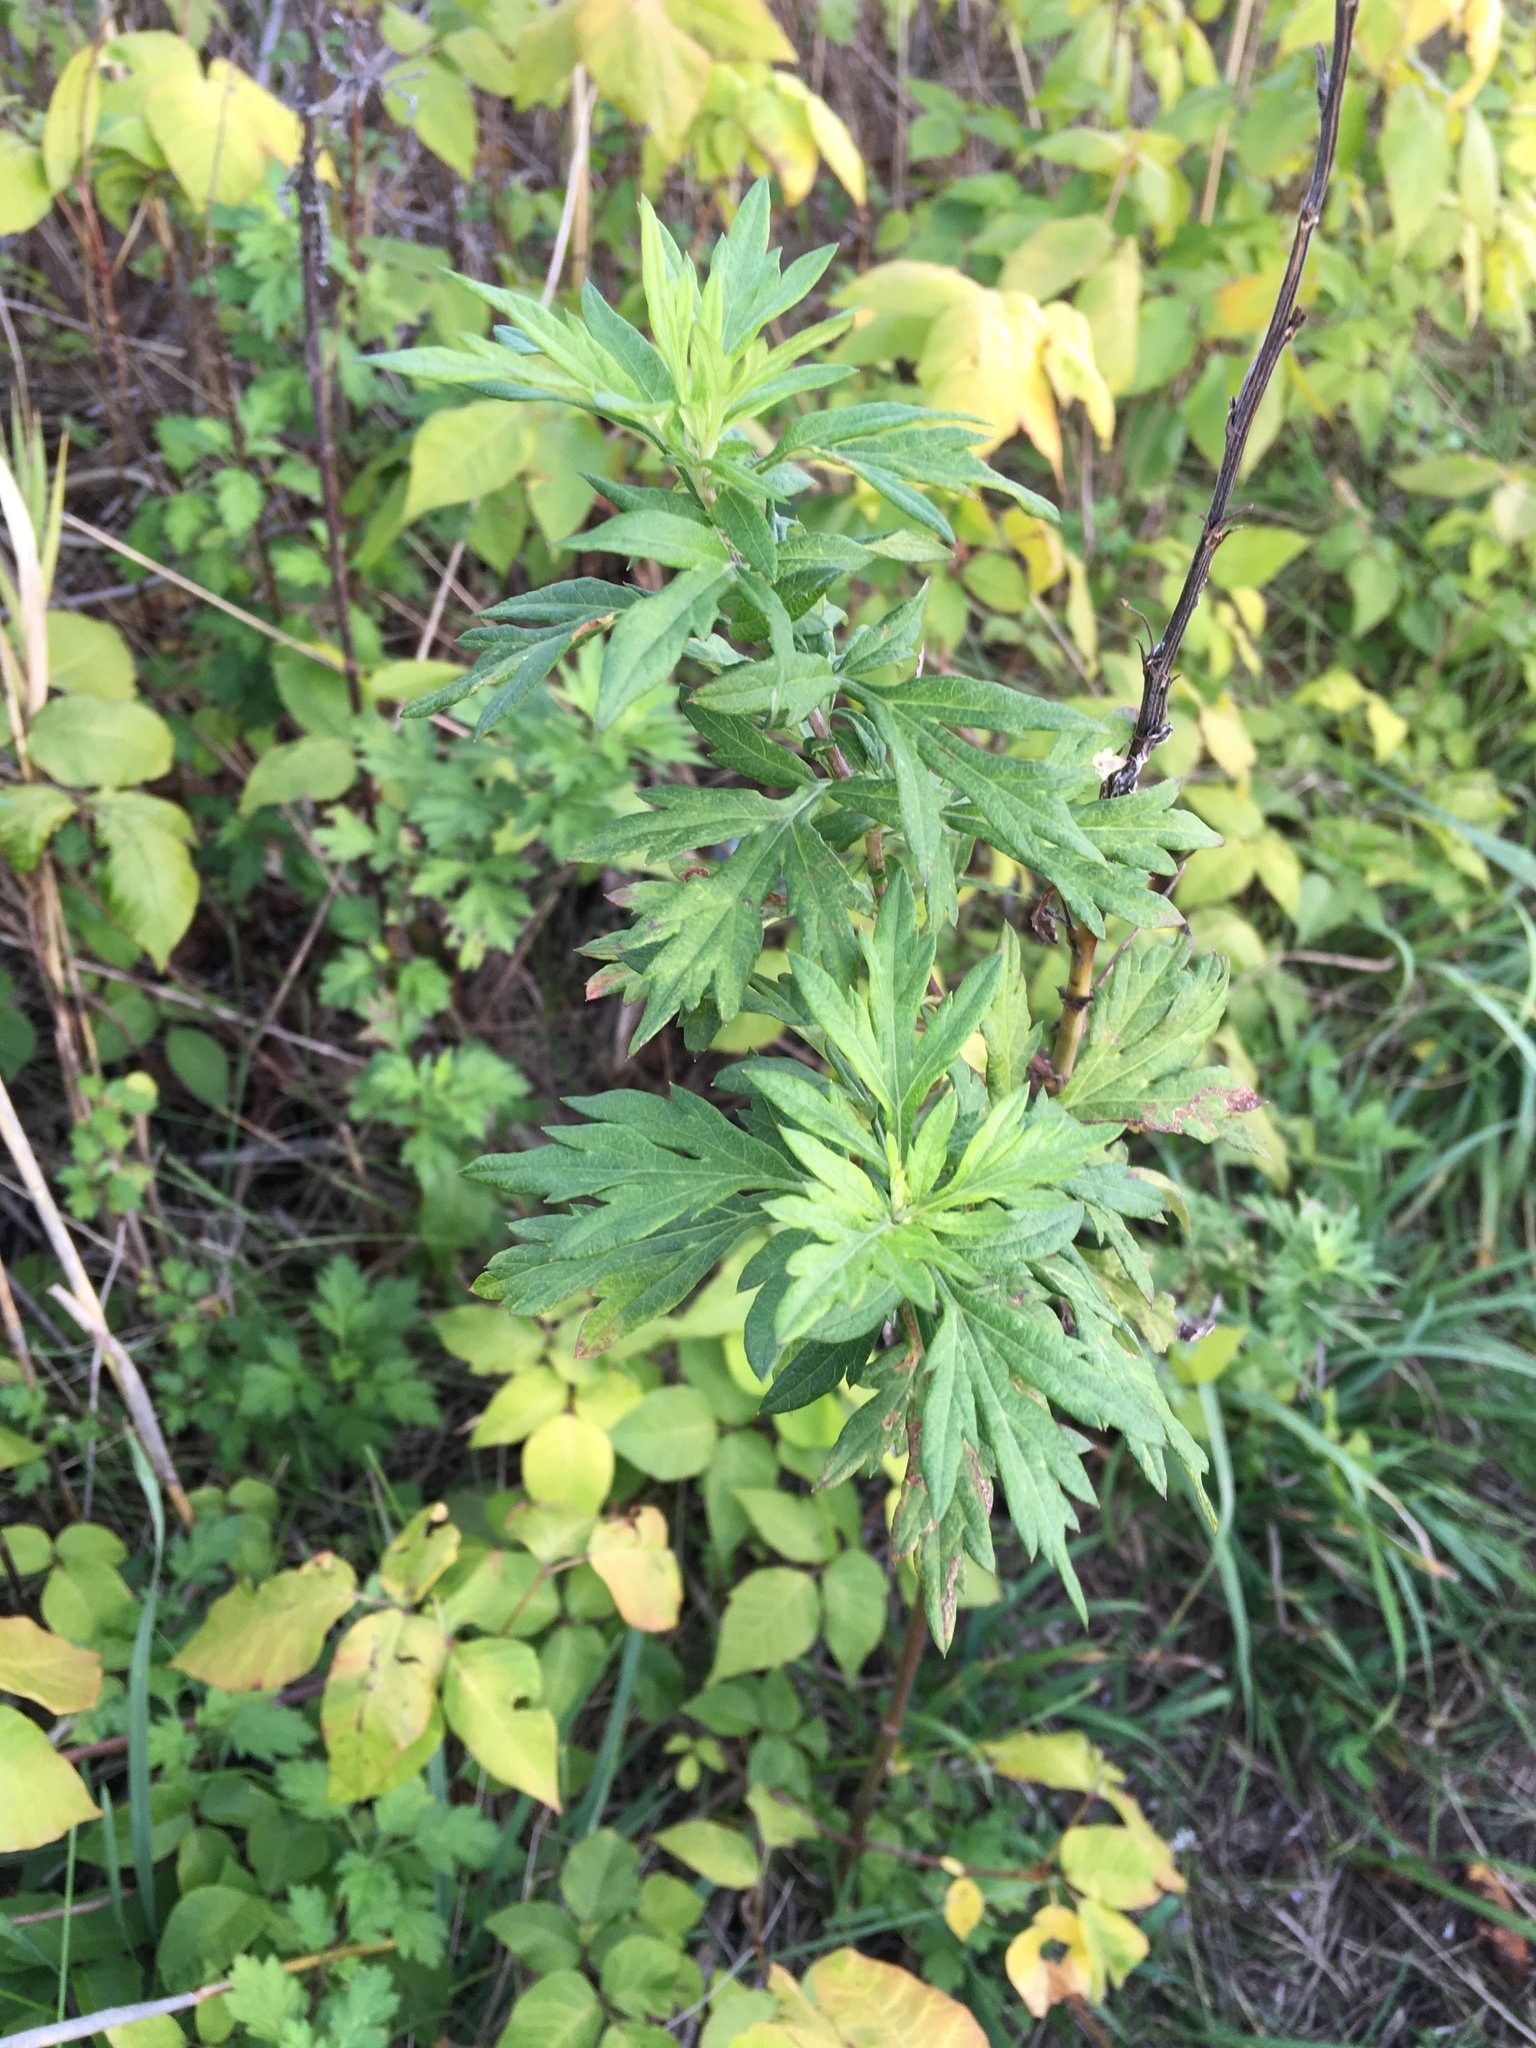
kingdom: Plantae
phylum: Tracheophyta
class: Magnoliopsida
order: Asterales
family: Asteraceae
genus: Artemisia
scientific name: Artemisia vulgaris
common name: Mugwort
